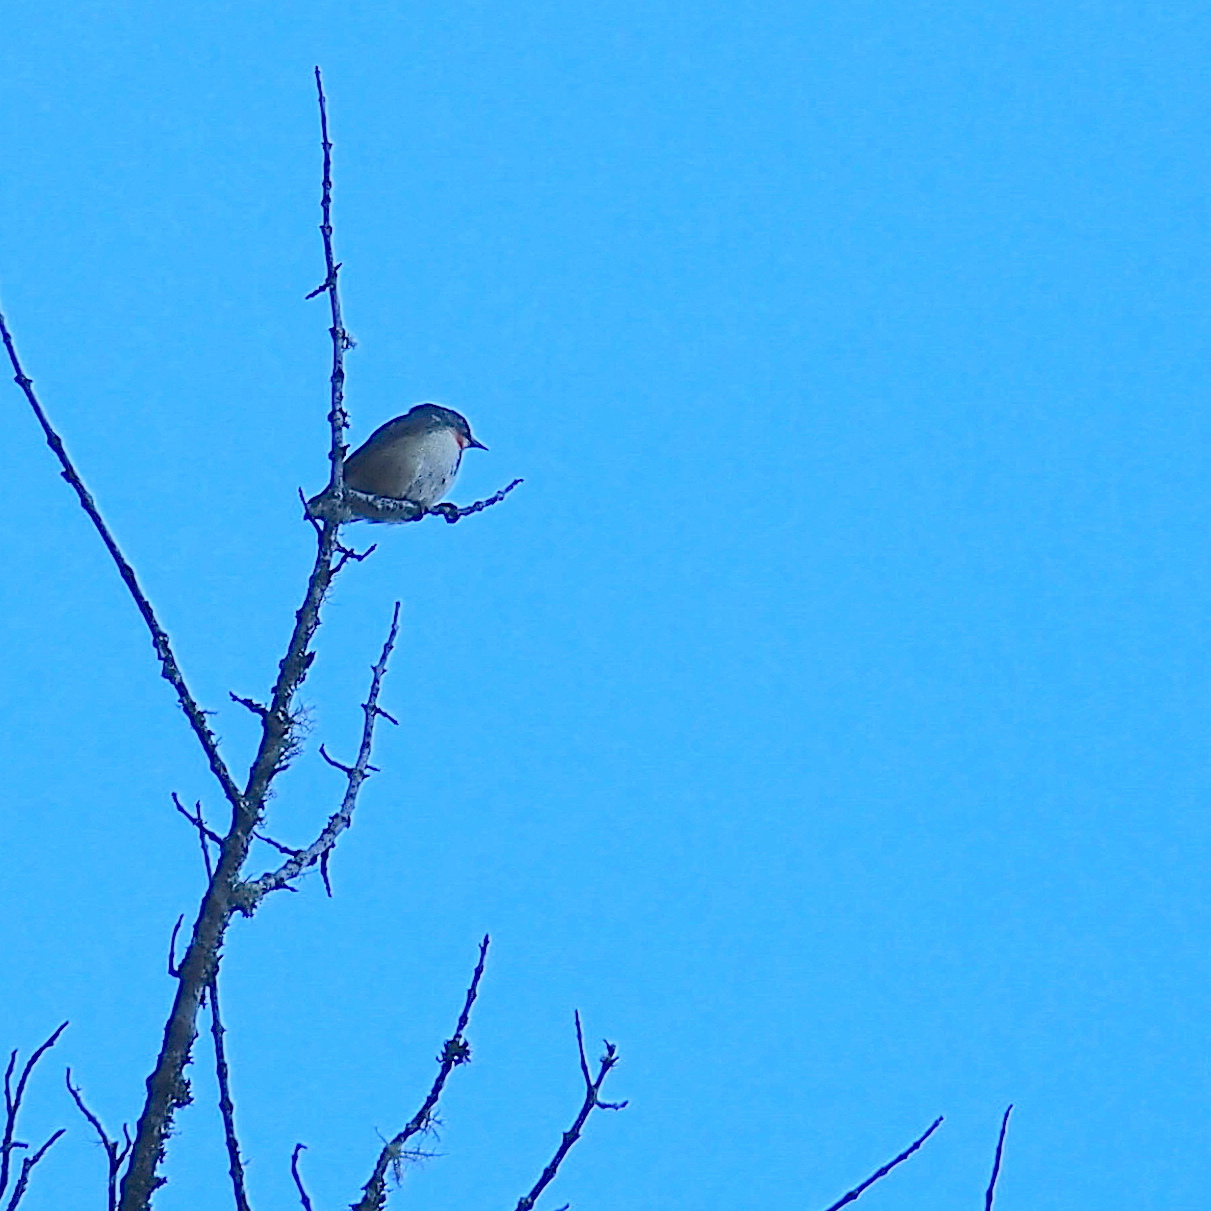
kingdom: Animalia
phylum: Chordata
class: Aves
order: Passeriformes
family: Dicaeidae
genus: Dicaeum
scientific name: Dicaeum ignipectus
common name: Fire-breasted flowerpecker
